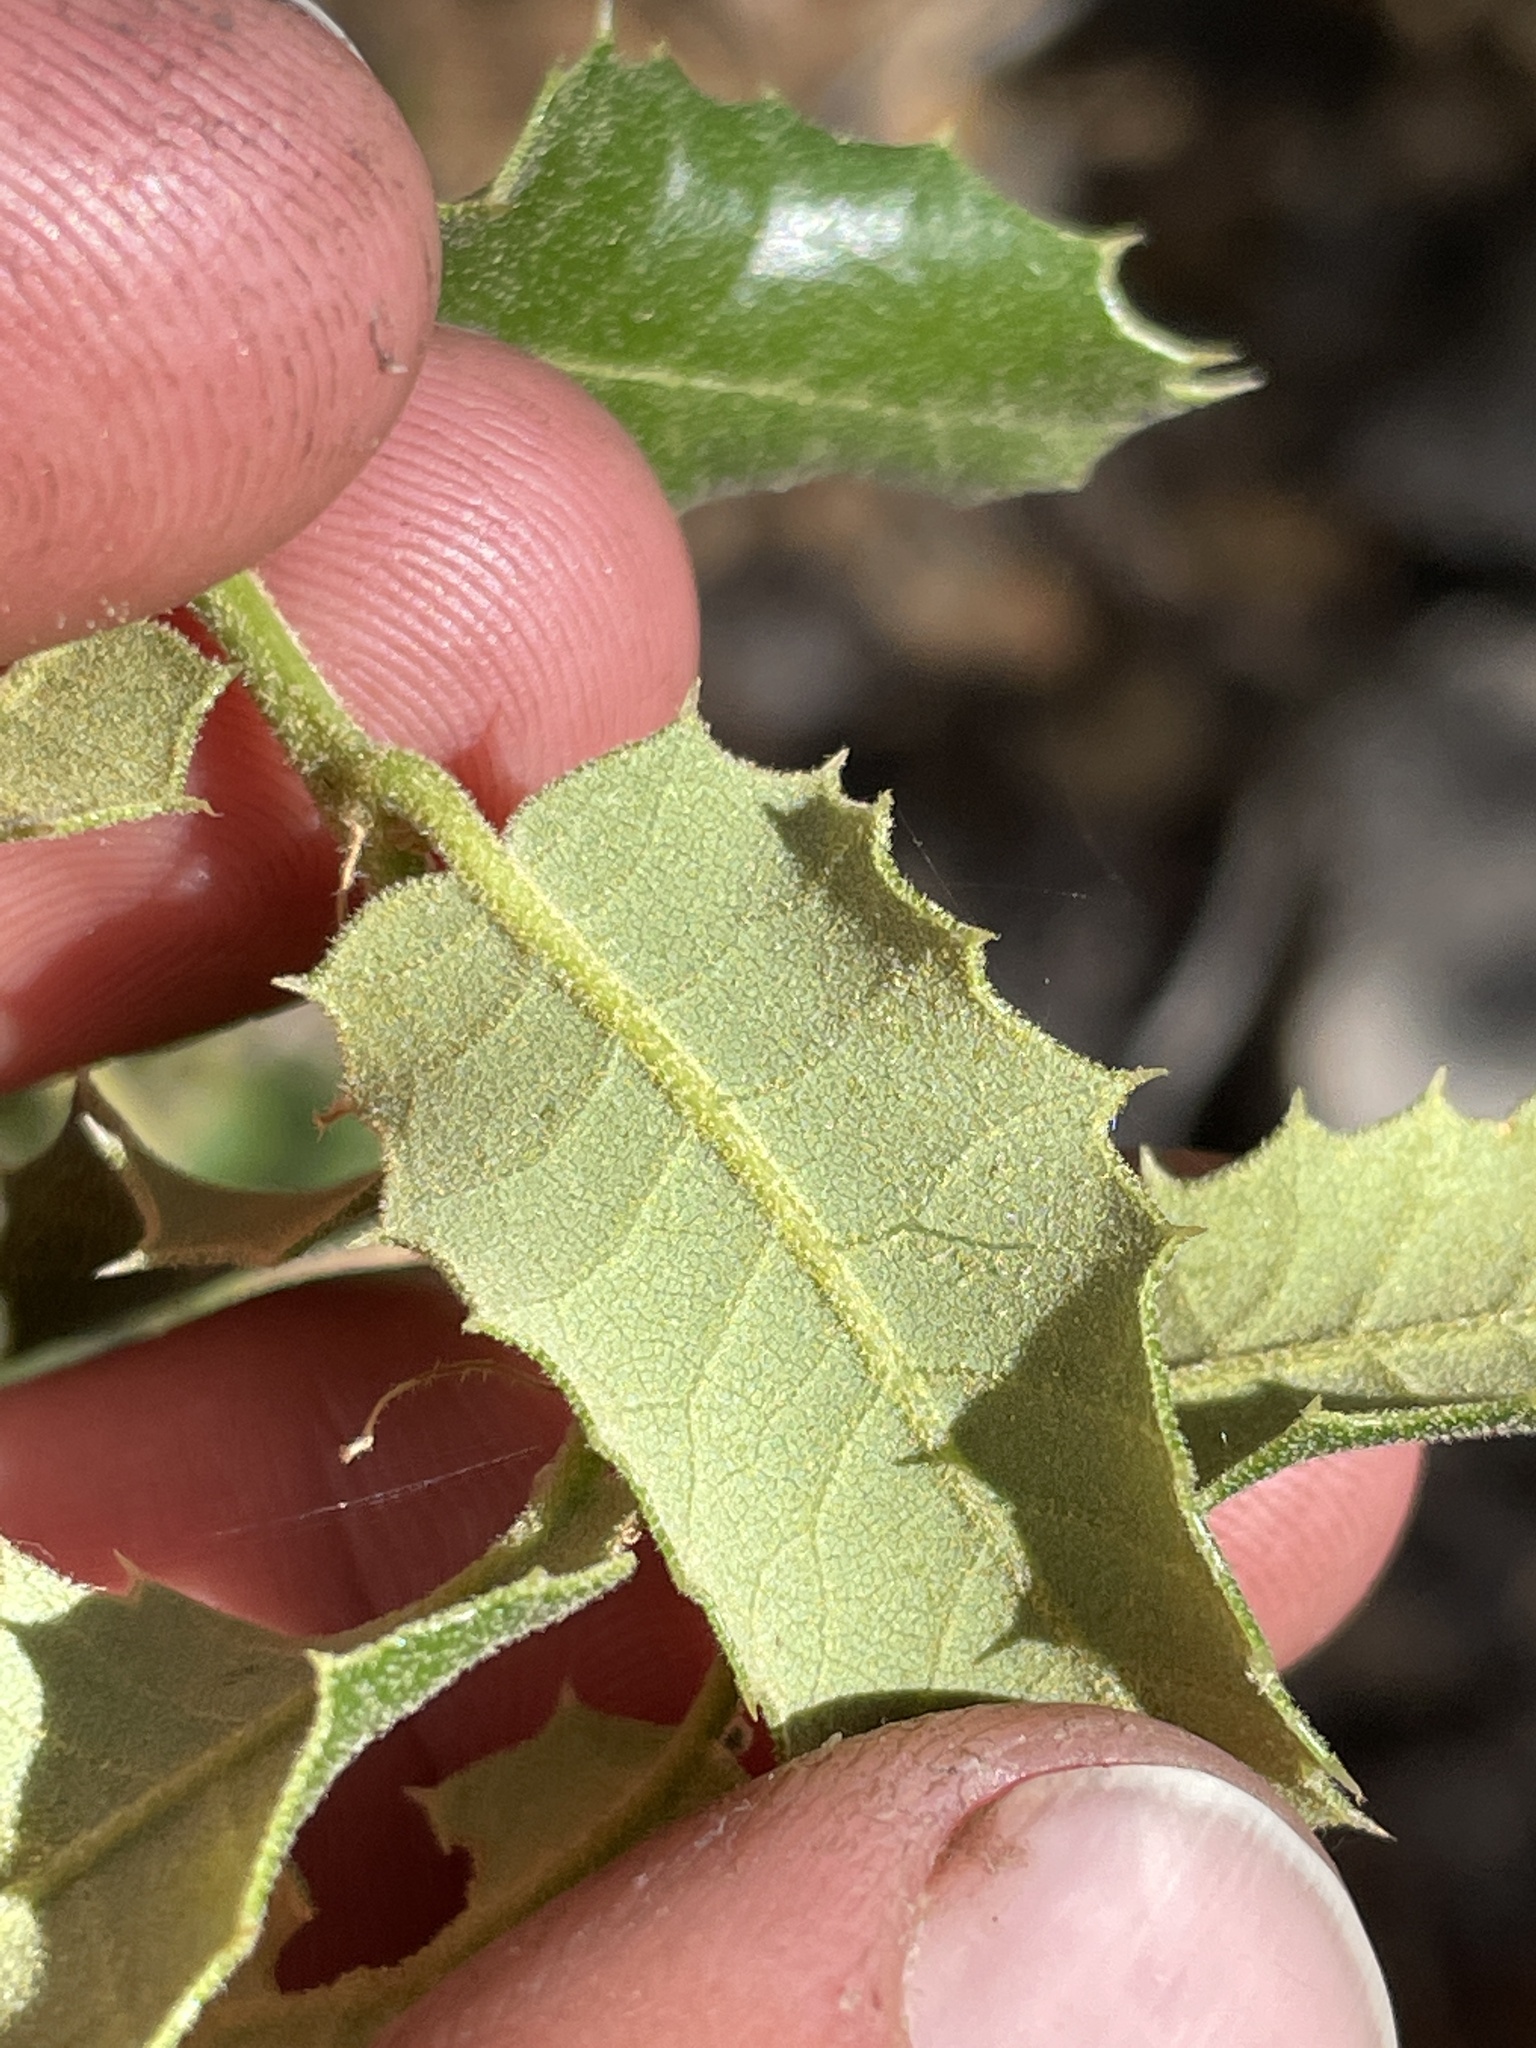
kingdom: Plantae
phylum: Tracheophyta
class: Magnoliopsida
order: Fagales
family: Fagaceae
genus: Quercus
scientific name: Quercus chrysolepis
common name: Canyon live oak
